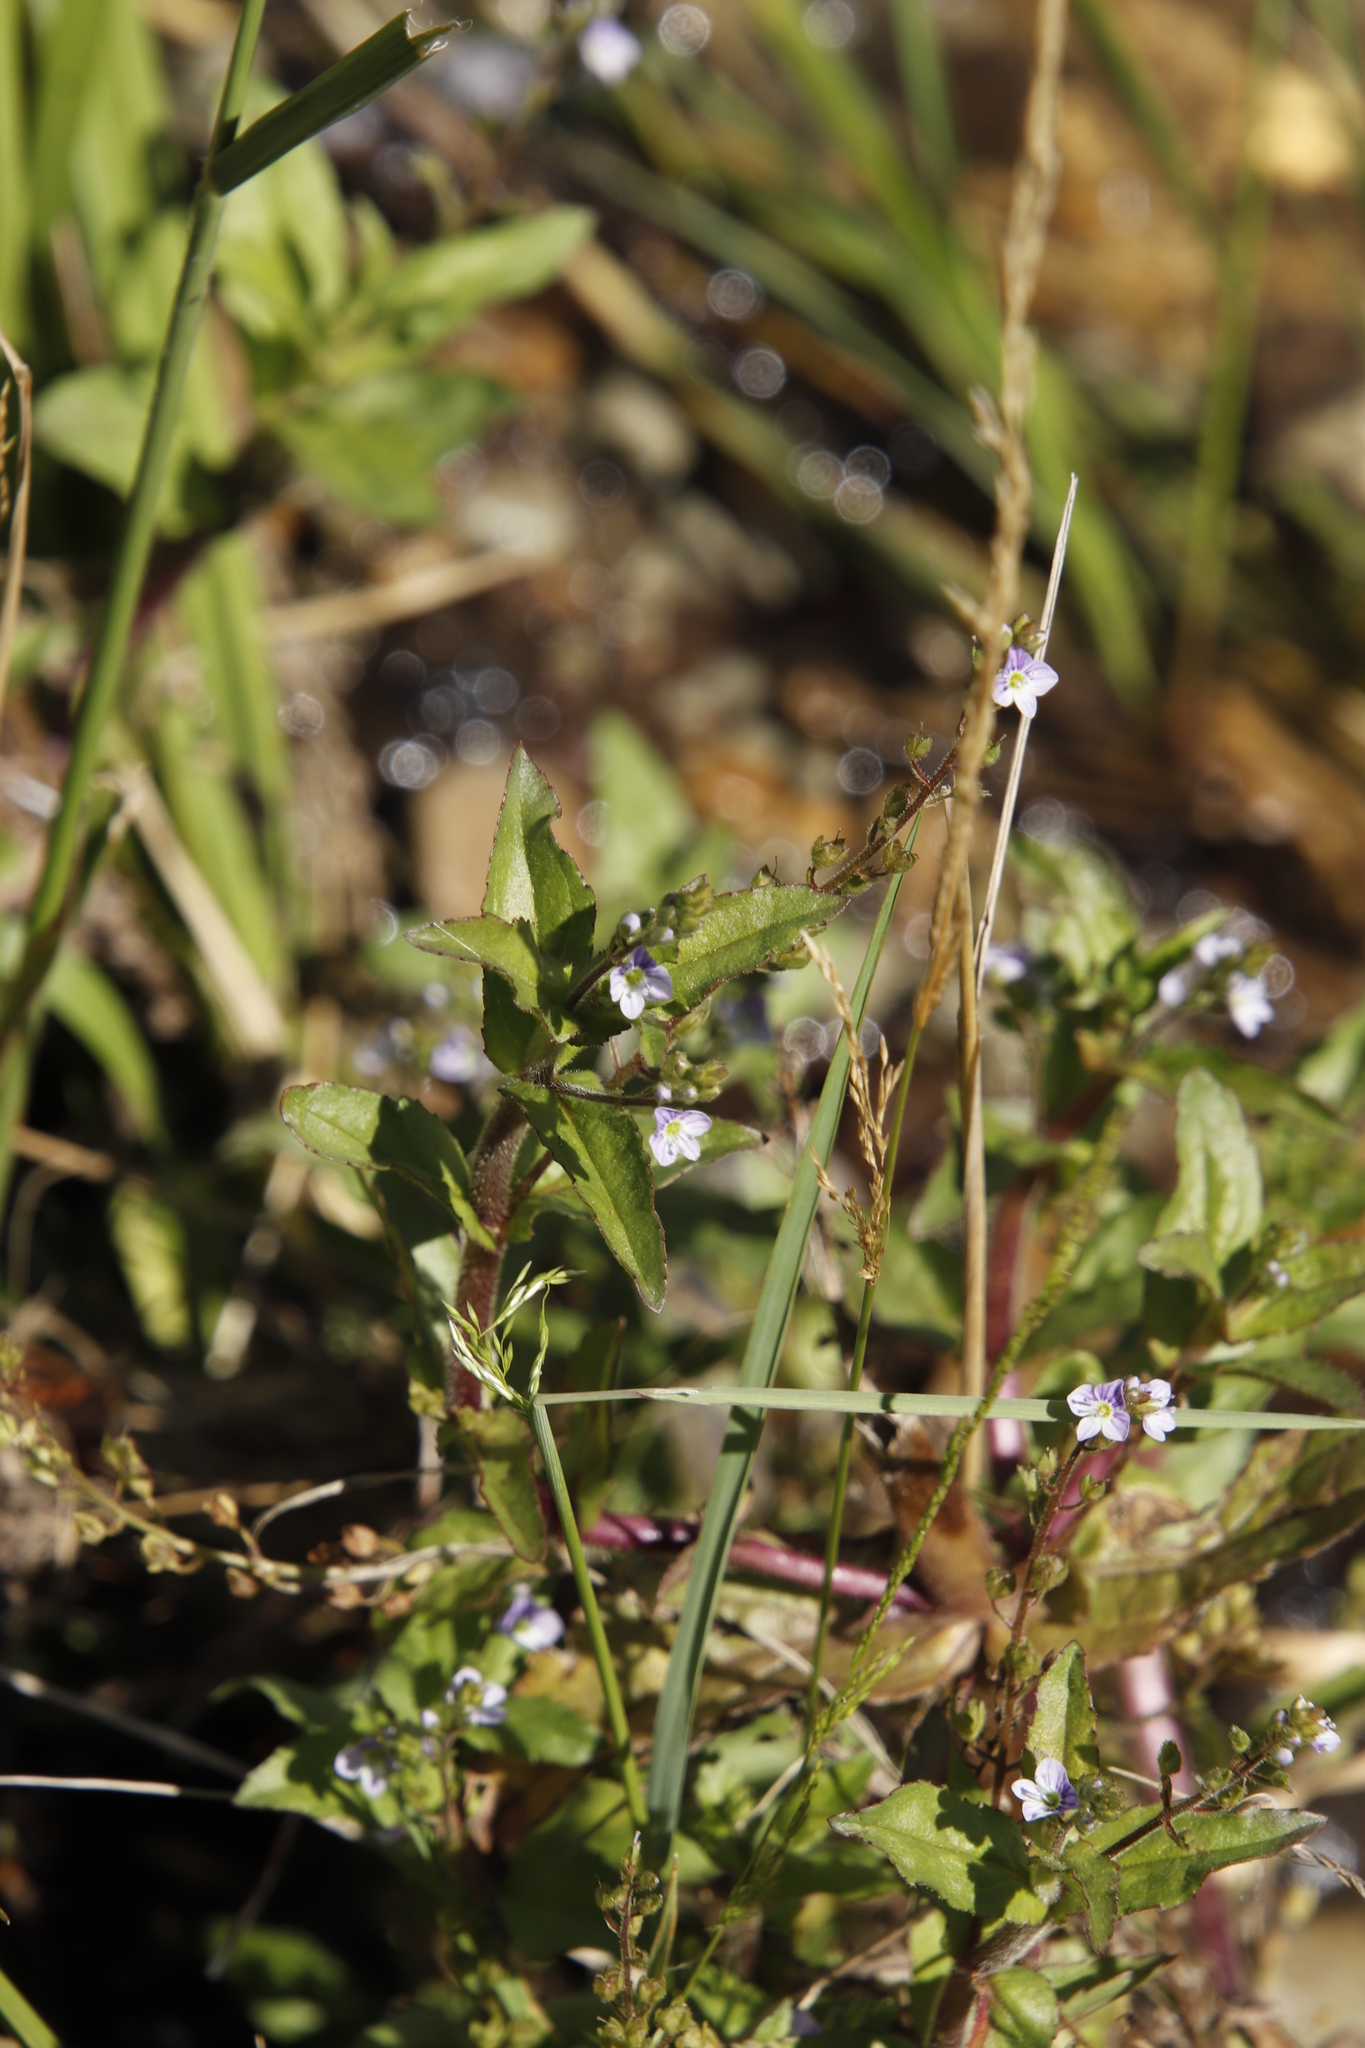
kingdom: Plantae
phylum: Tracheophyta
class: Magnoliopsida
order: Lamiales
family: Plantaginaceae
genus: Veronica
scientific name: Veronica anagallis-aquatica
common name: Water speedwell
